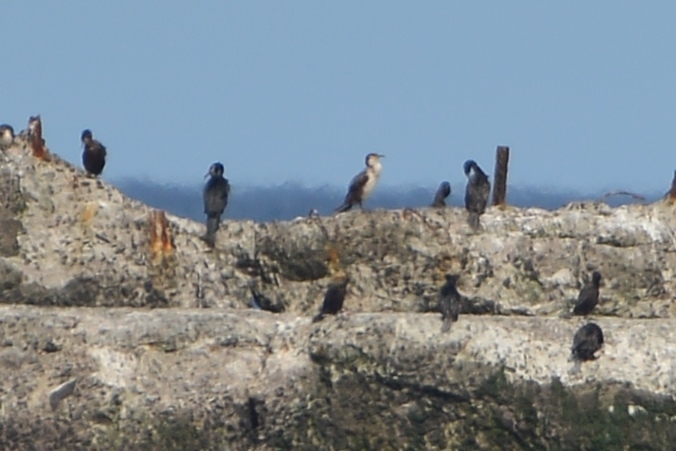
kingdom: Animalia
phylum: Chordata
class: Aves
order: Suliformes
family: Phalacrocoracidae
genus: Phalacrocorax
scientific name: Phalacrocorax capillatus
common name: Japanese cormorant
